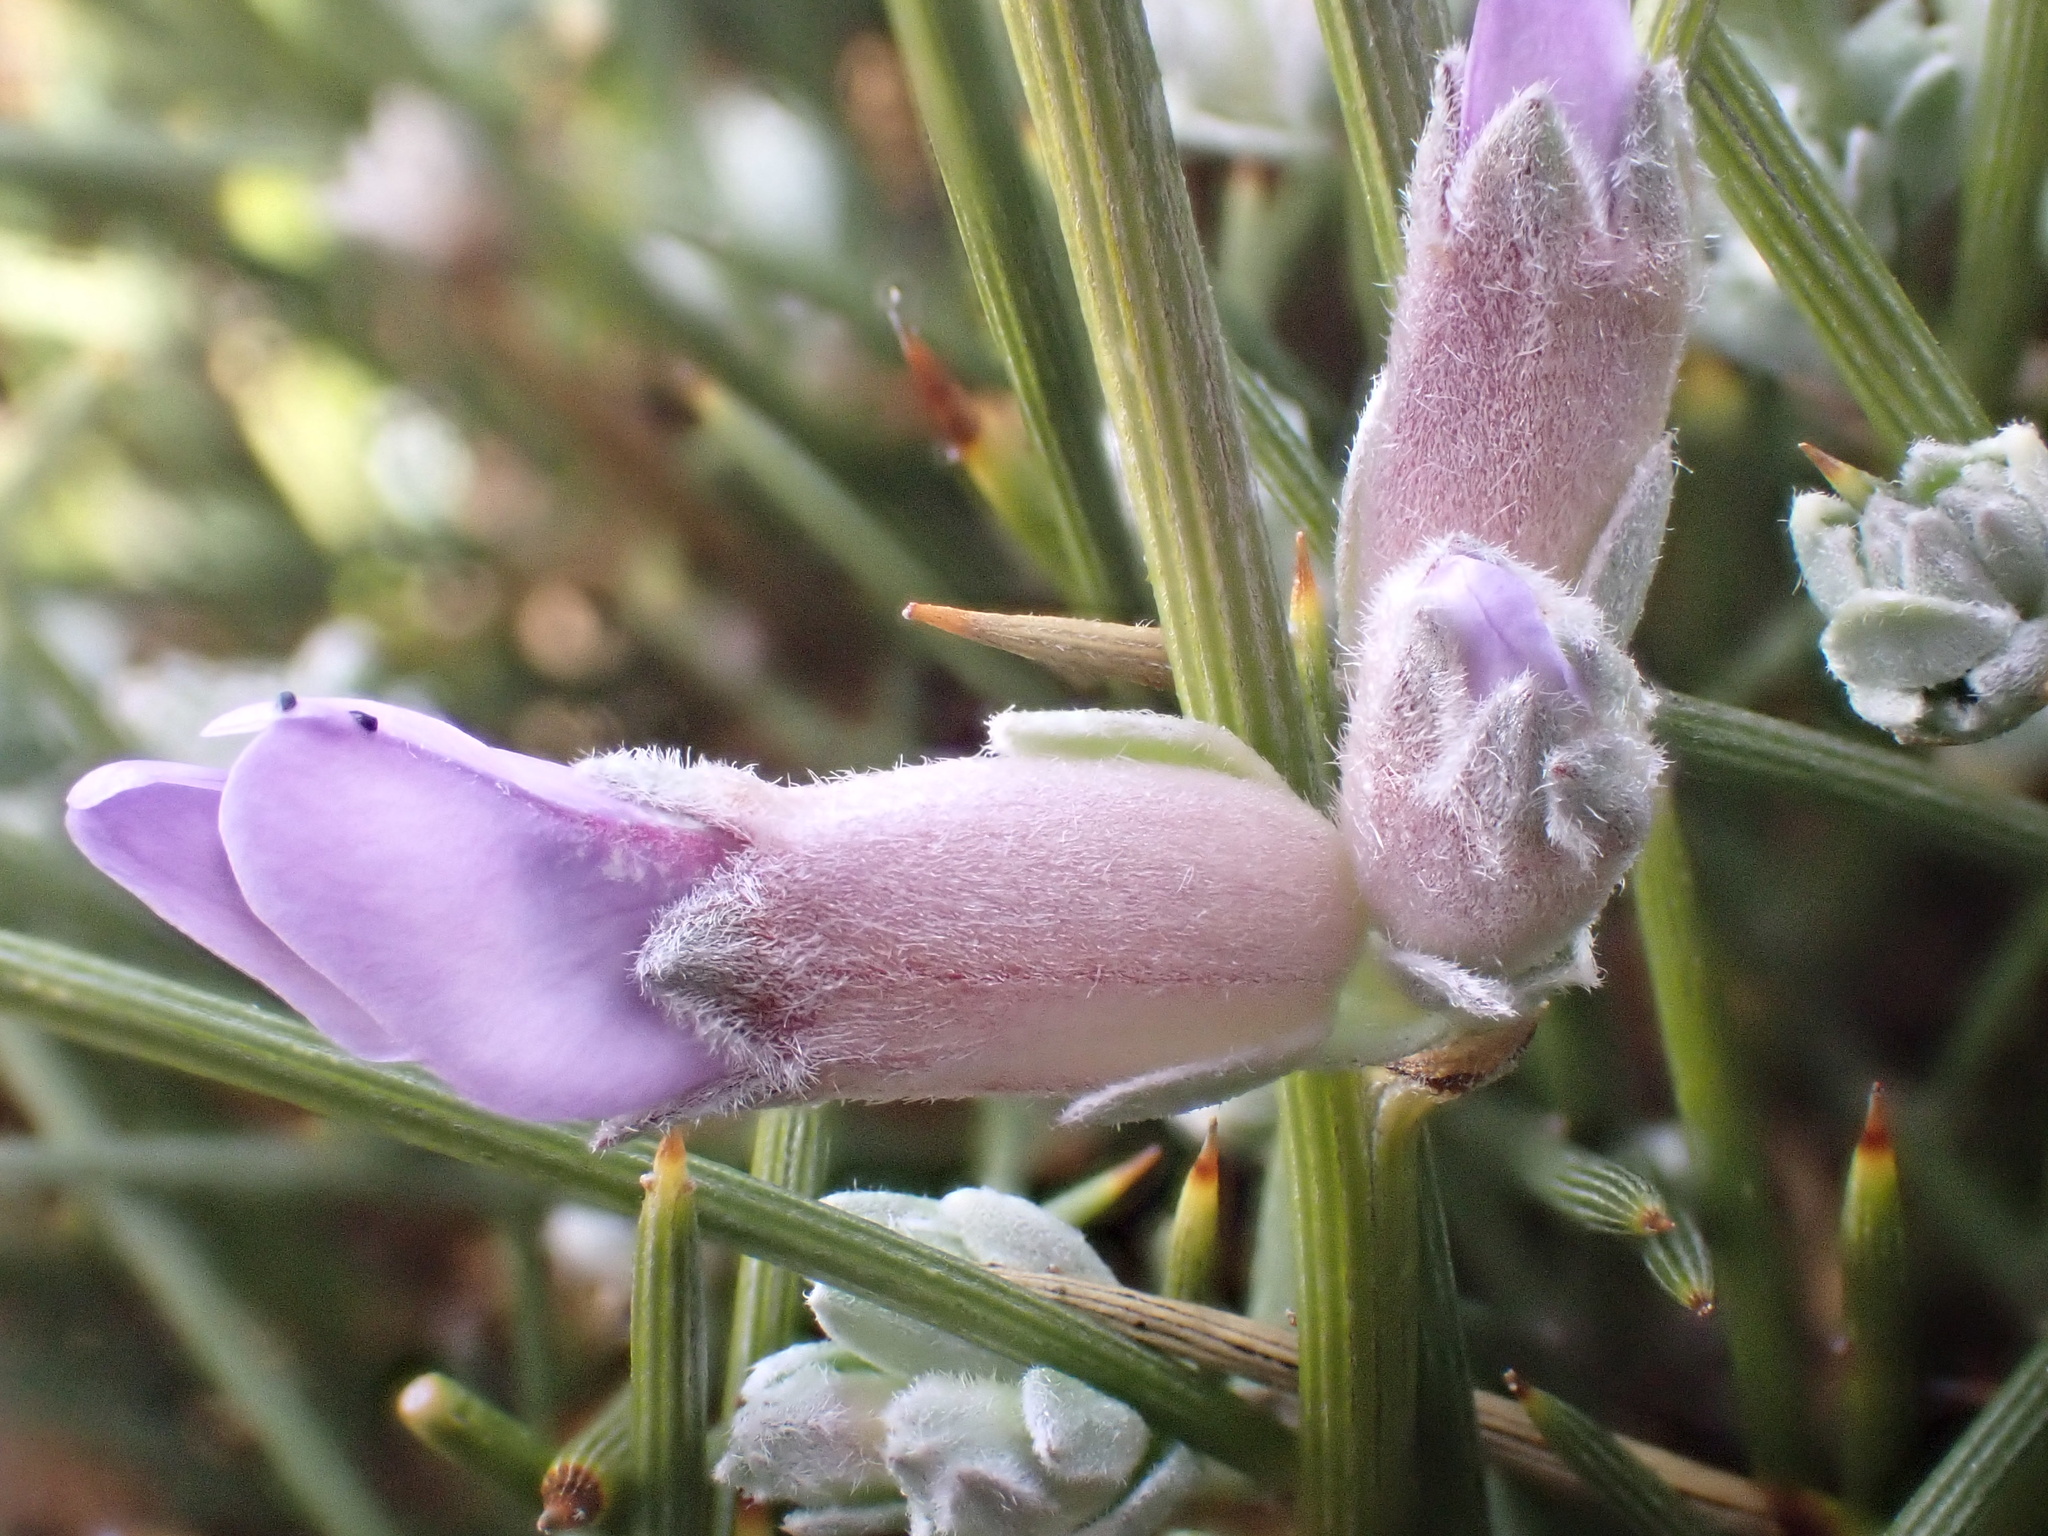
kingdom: Plantae
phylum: Tracheophyta
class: Magnoliopsida
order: Fabales
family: Fabaceae
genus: Erinacea
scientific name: Erinacea anthyllis
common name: Hedgehog-broom
